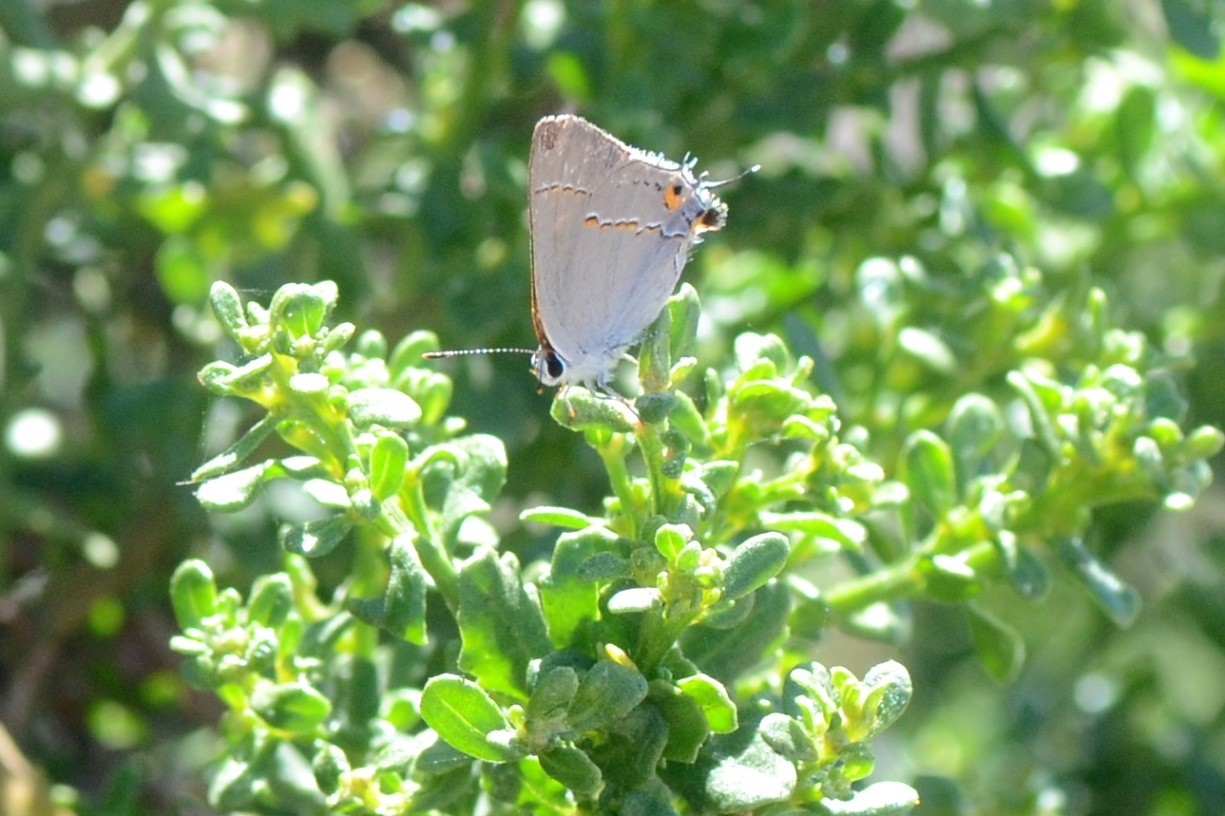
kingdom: Animalia
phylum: Arthropoda
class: Insecta
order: Lepidoptera
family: Lycaenidae
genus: Strymon
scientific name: Strymon melinus
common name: Gray hairstreak
